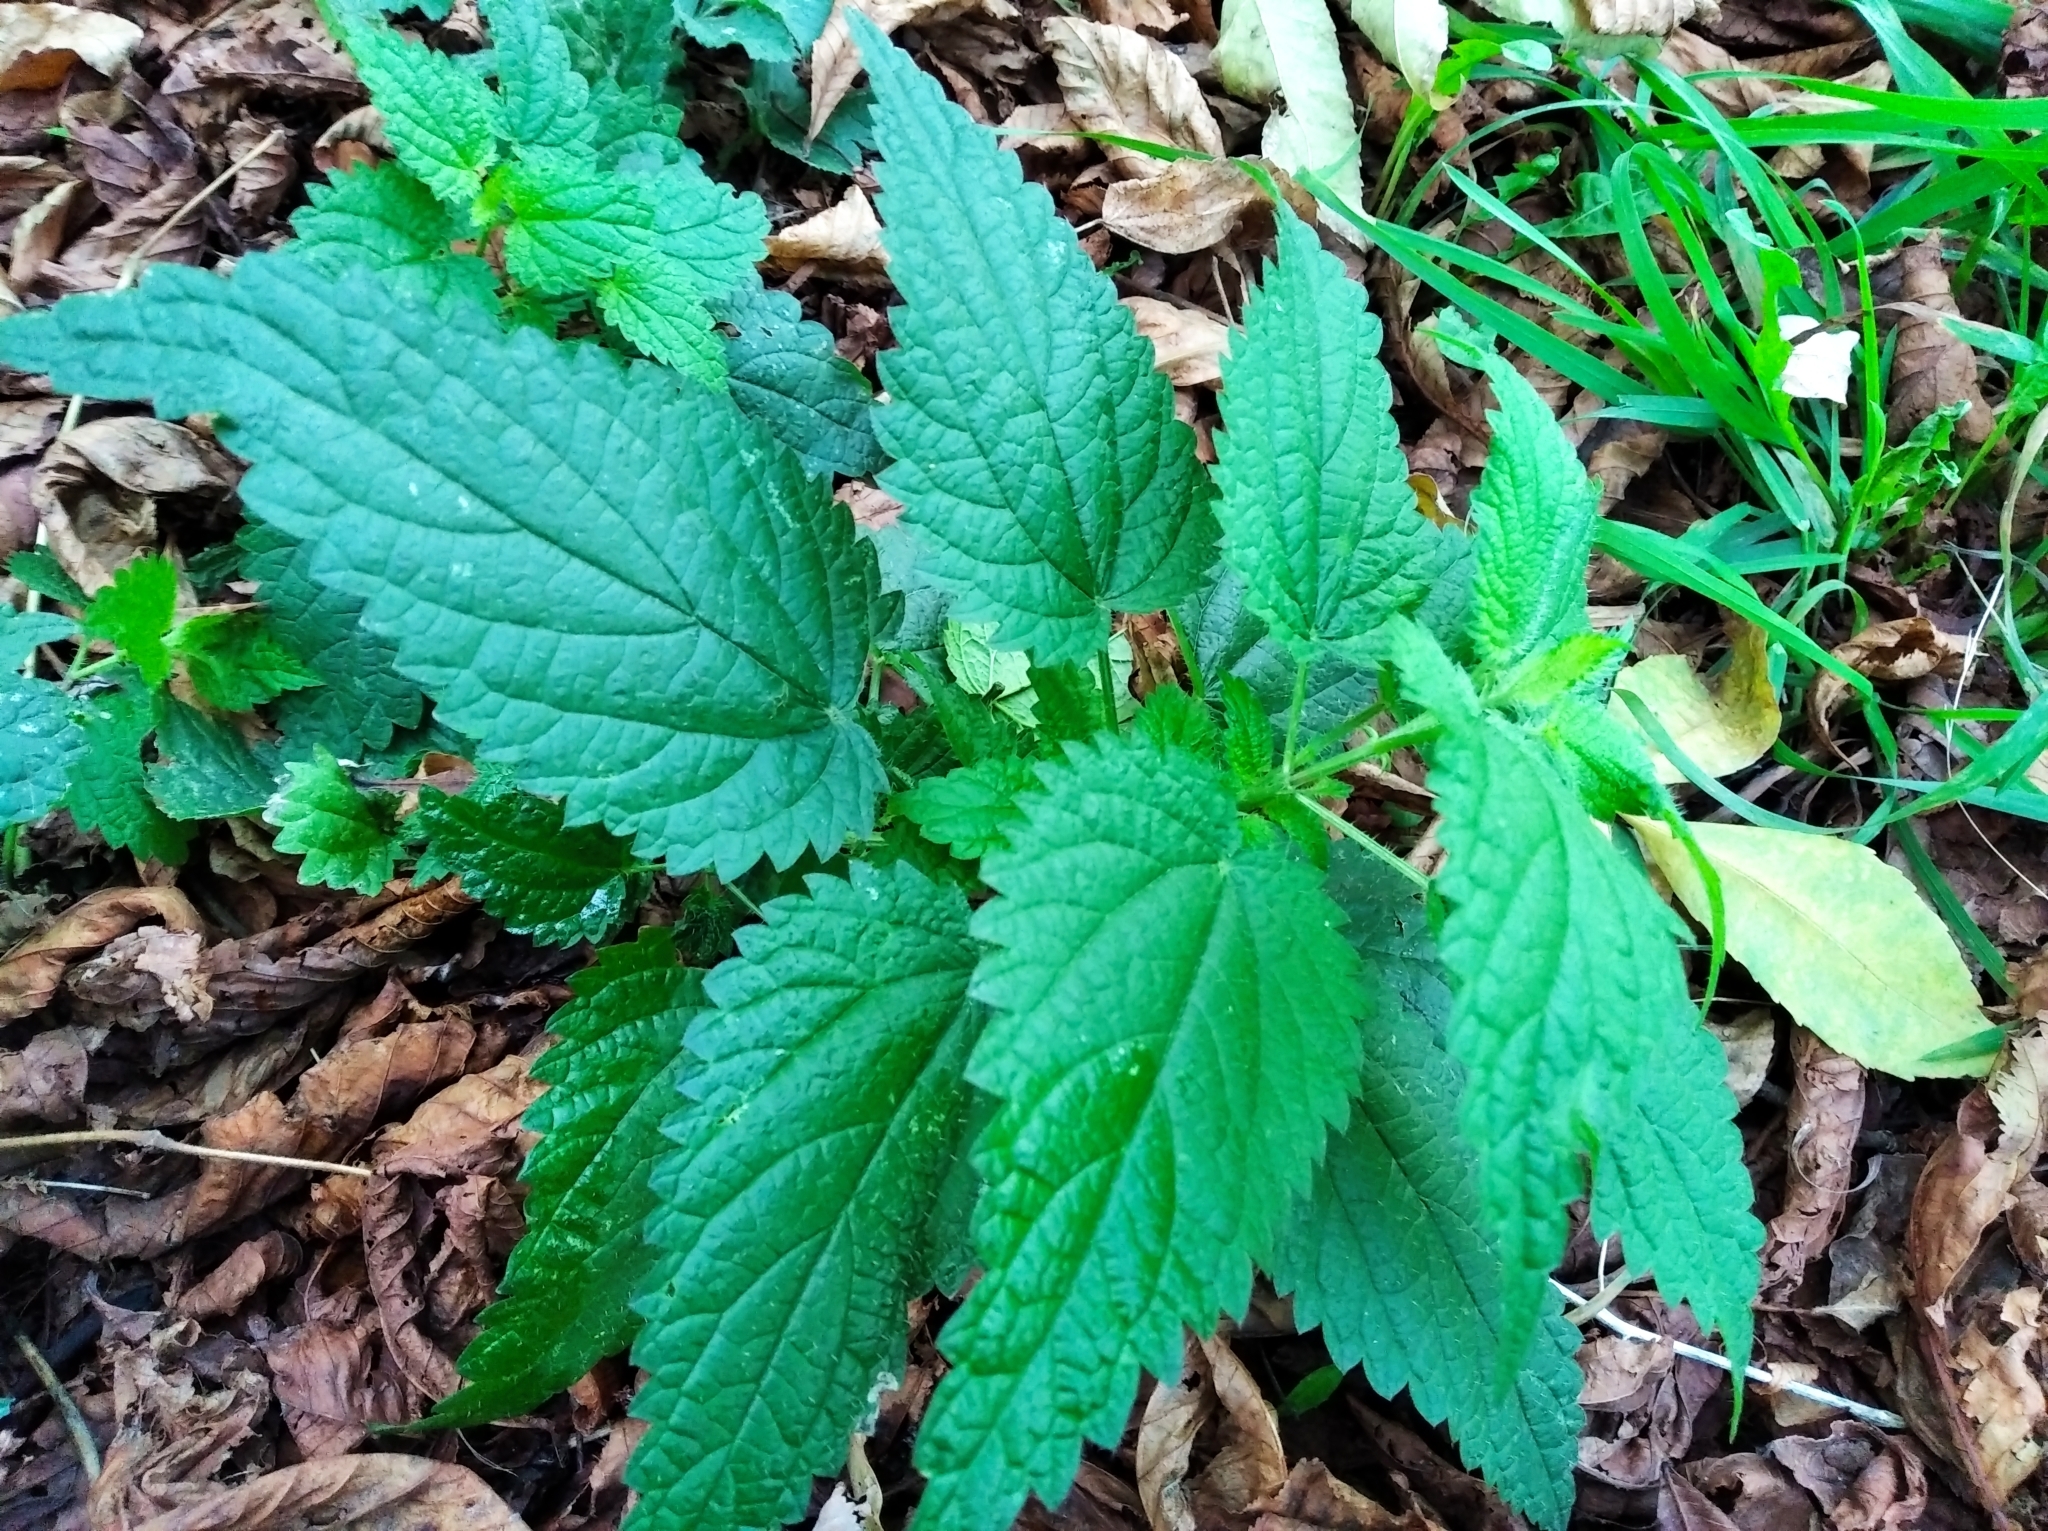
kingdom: Plantae
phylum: Tracheophyta
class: Magnoliopsida
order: Rosales
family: Urticaceae
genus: Urtica
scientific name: Urtica dioica
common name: Common nettle
